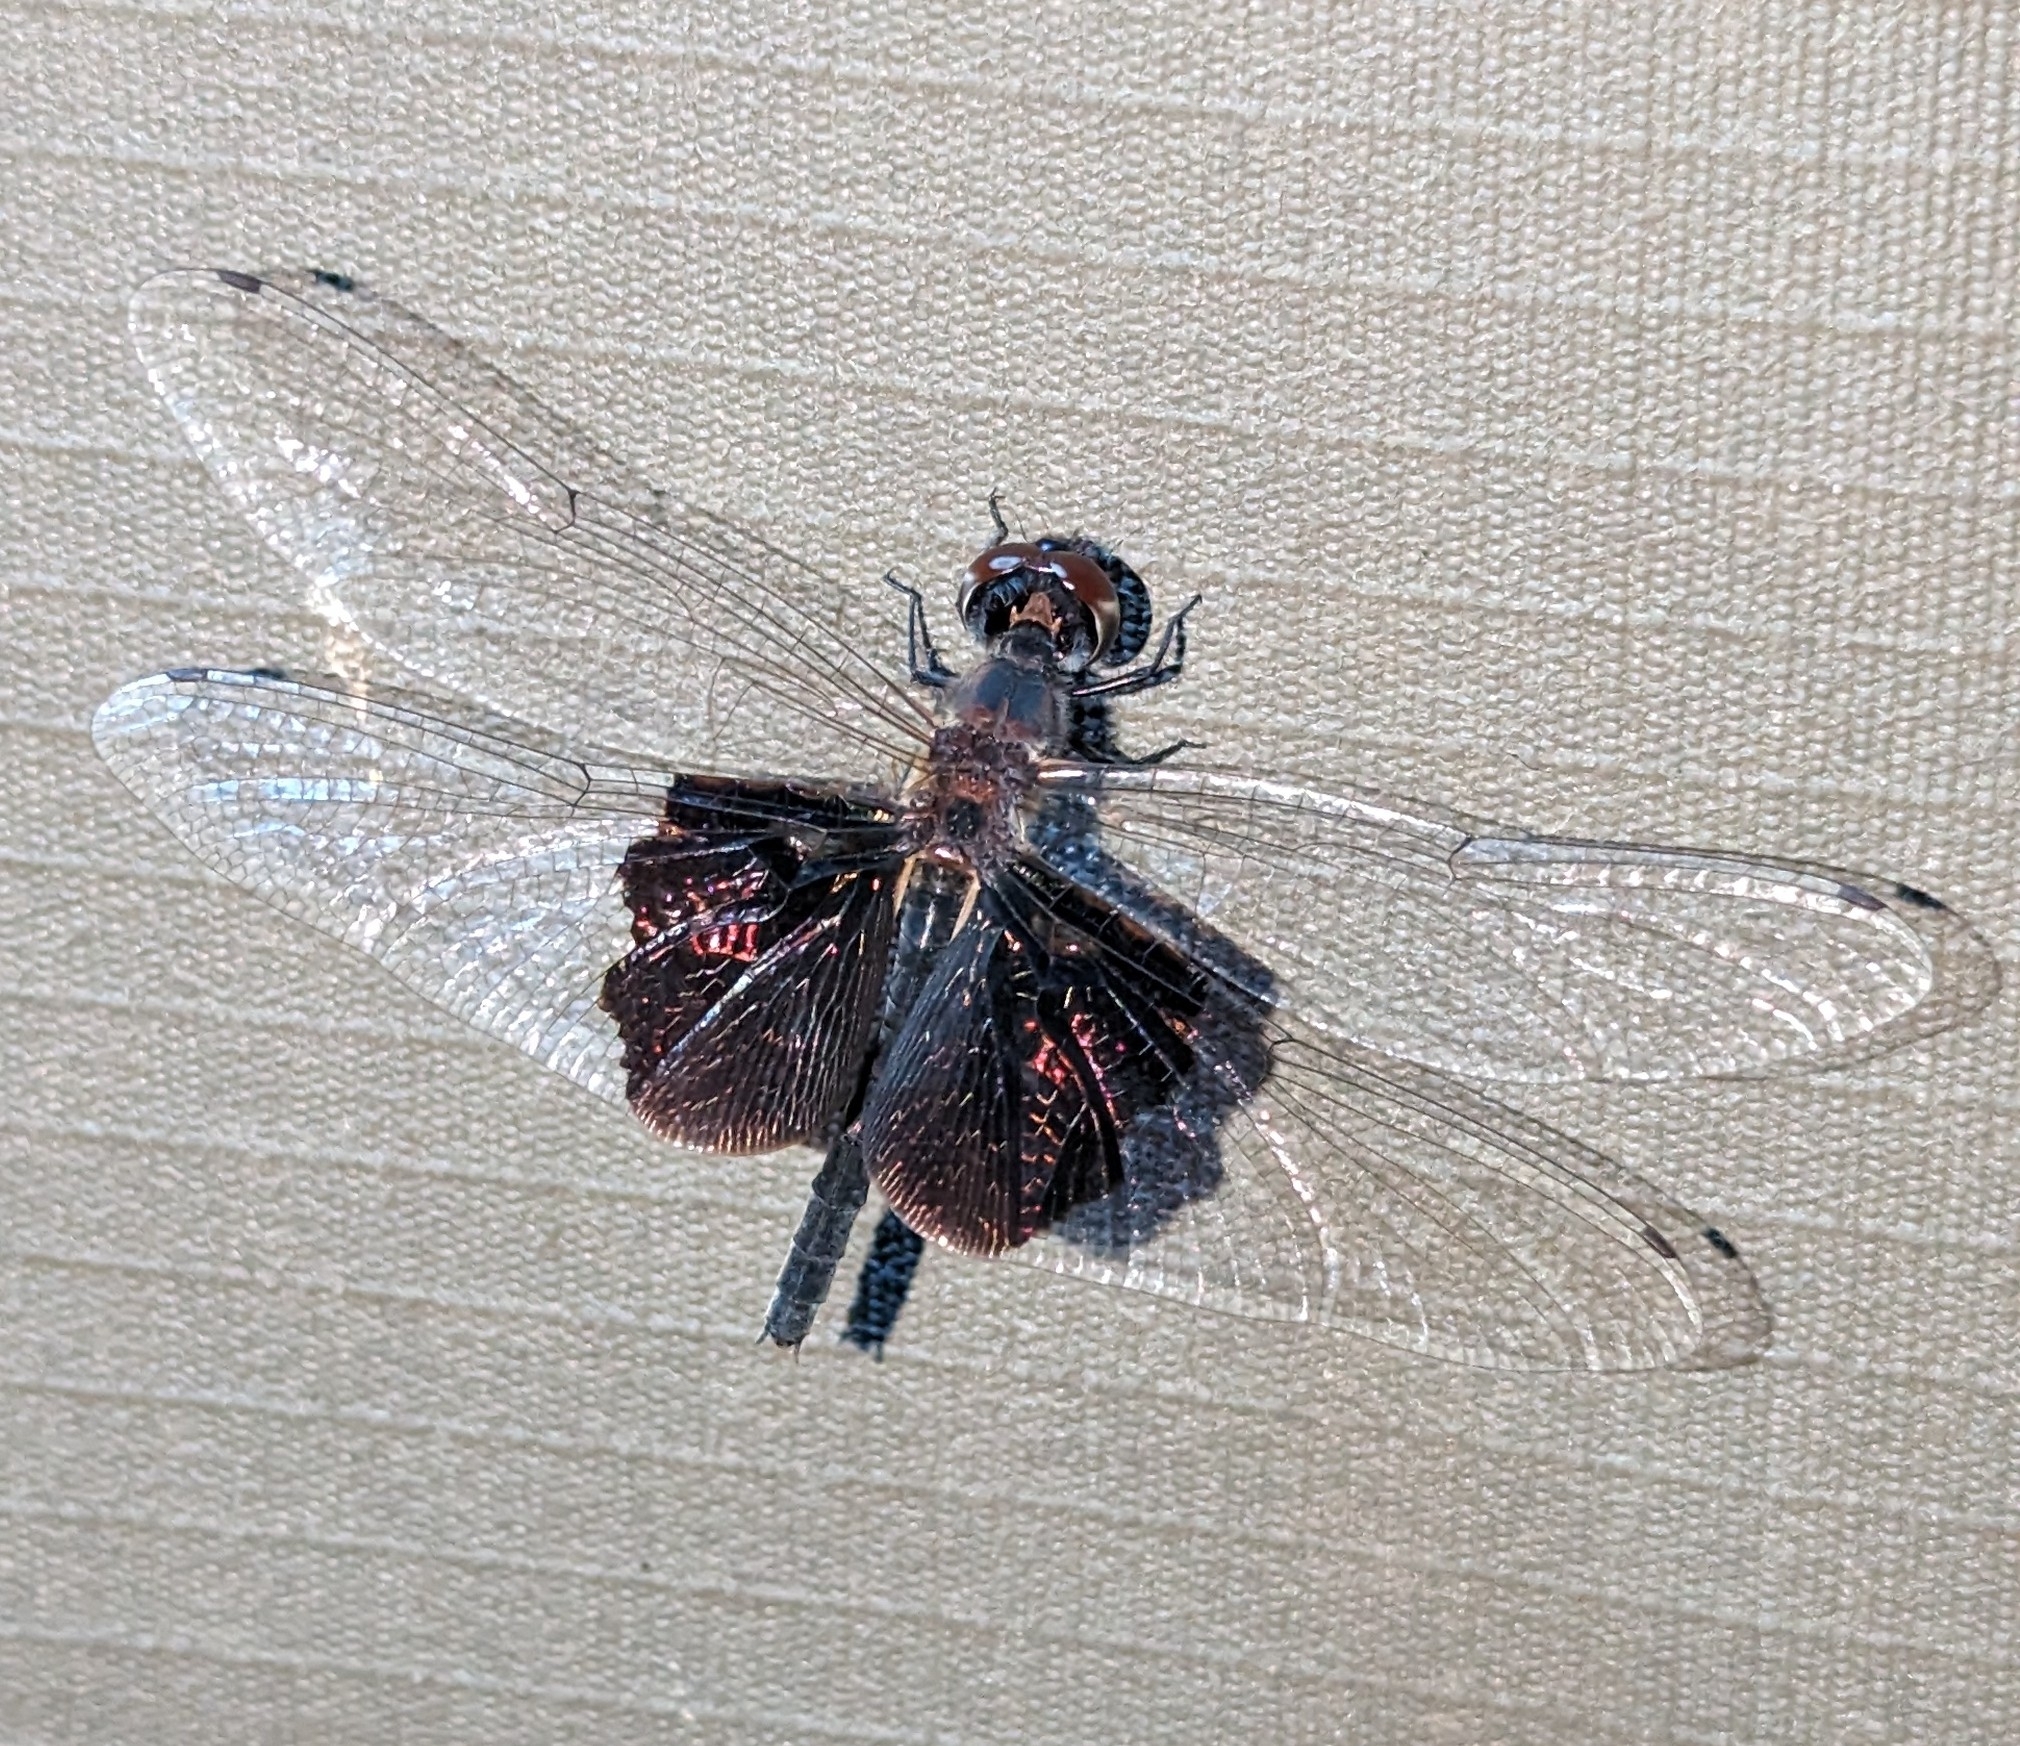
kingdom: Animalia
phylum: Arthropoda
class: Insecta
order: Odonata
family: Libellulidae
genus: Rhyothemis
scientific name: Rhyothemis semihyalina
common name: Phantom flutterer
